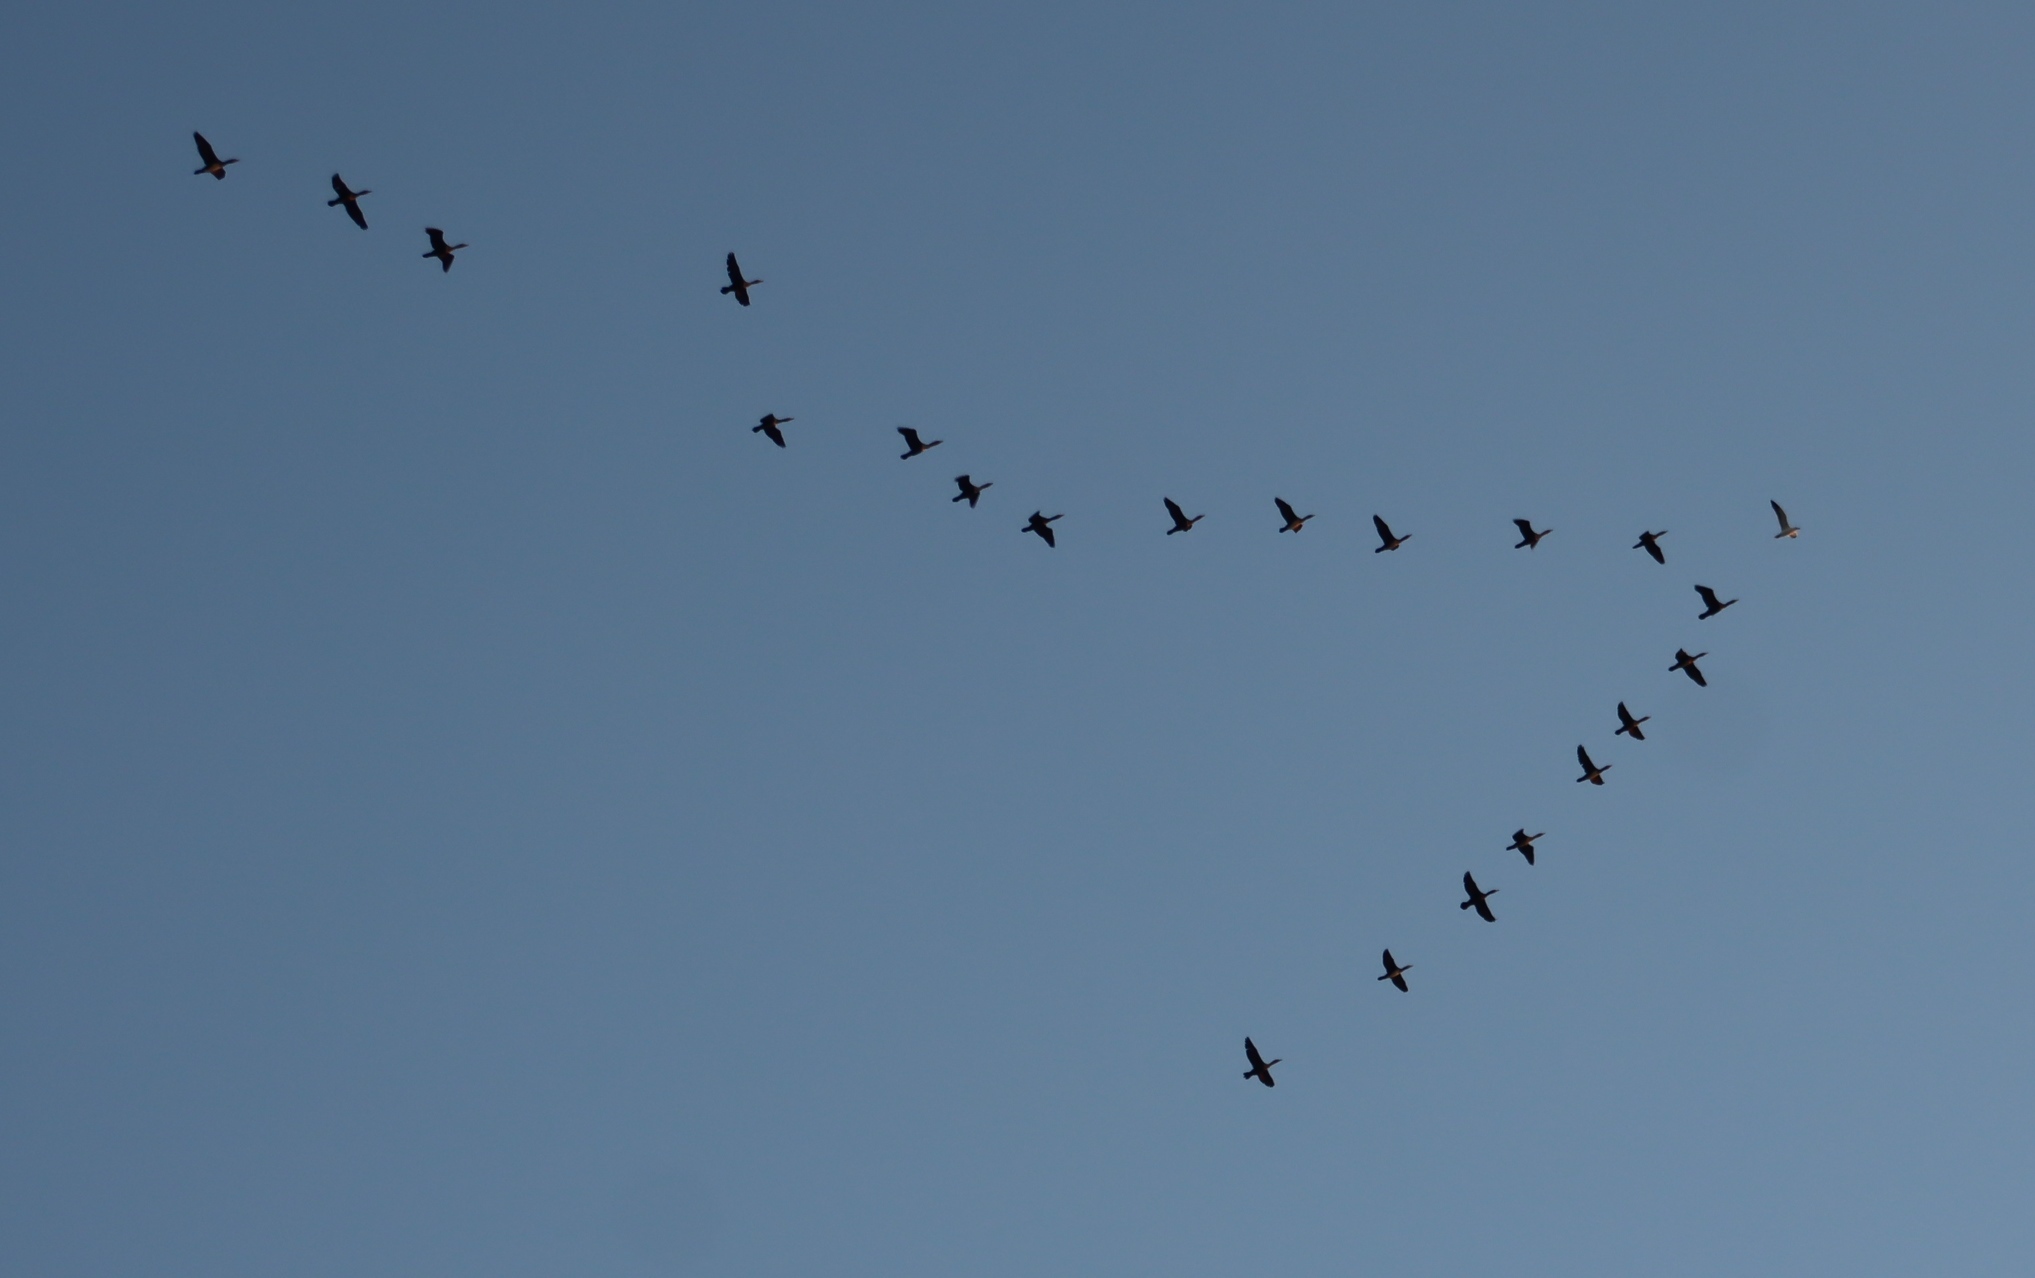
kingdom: Animalia
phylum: Chordata
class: Aves
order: Suliformes
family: Phalacrocoracidae
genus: Phalacrocorax
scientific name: Phalacrocorax carbo
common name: Great cormorant
